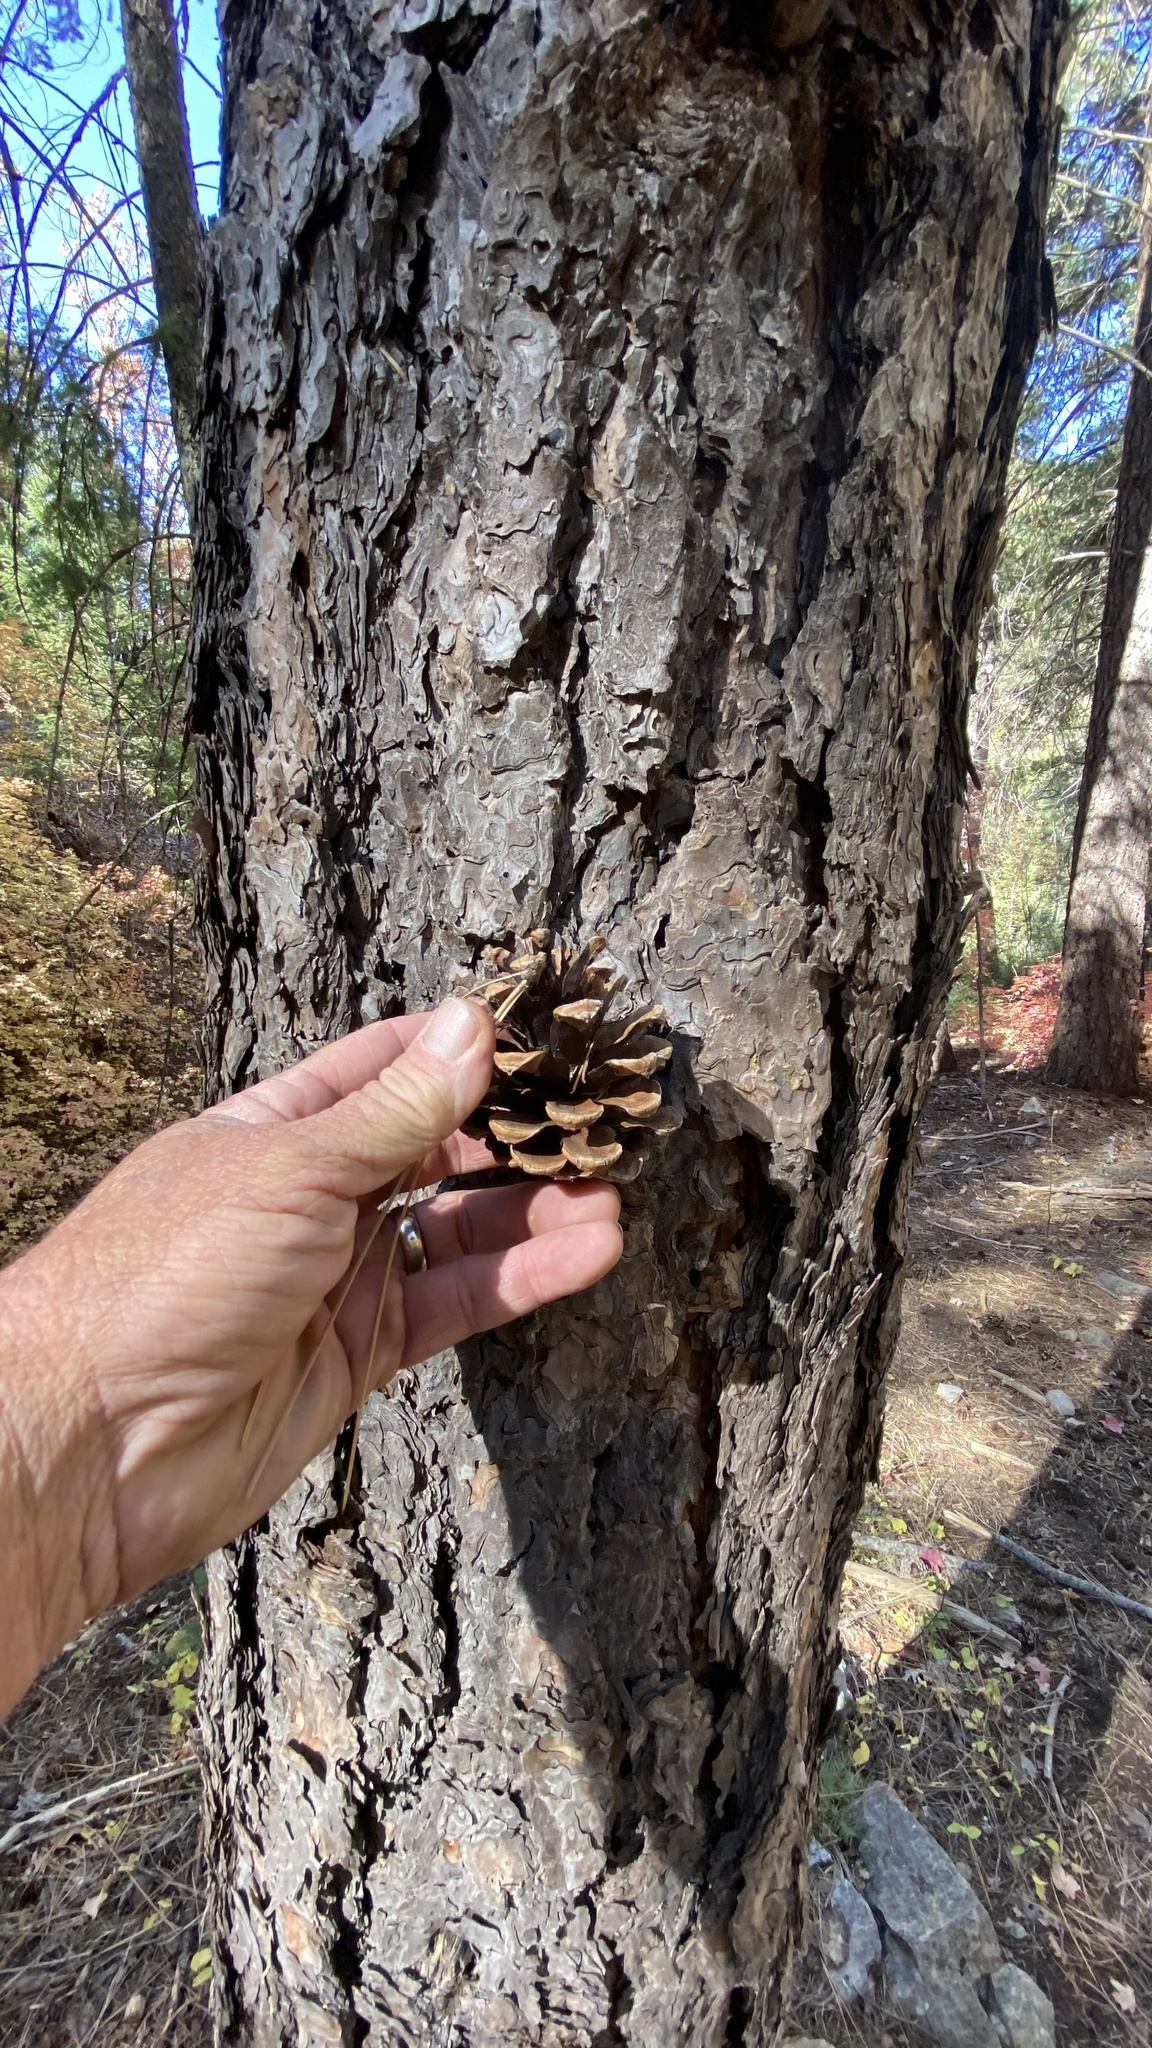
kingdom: Plantae
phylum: Tracheophyta
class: Pinopsida
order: Pinales
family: Pinaceae
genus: Pinus
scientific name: Pinus ponderosa
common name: Western yellow-pine
